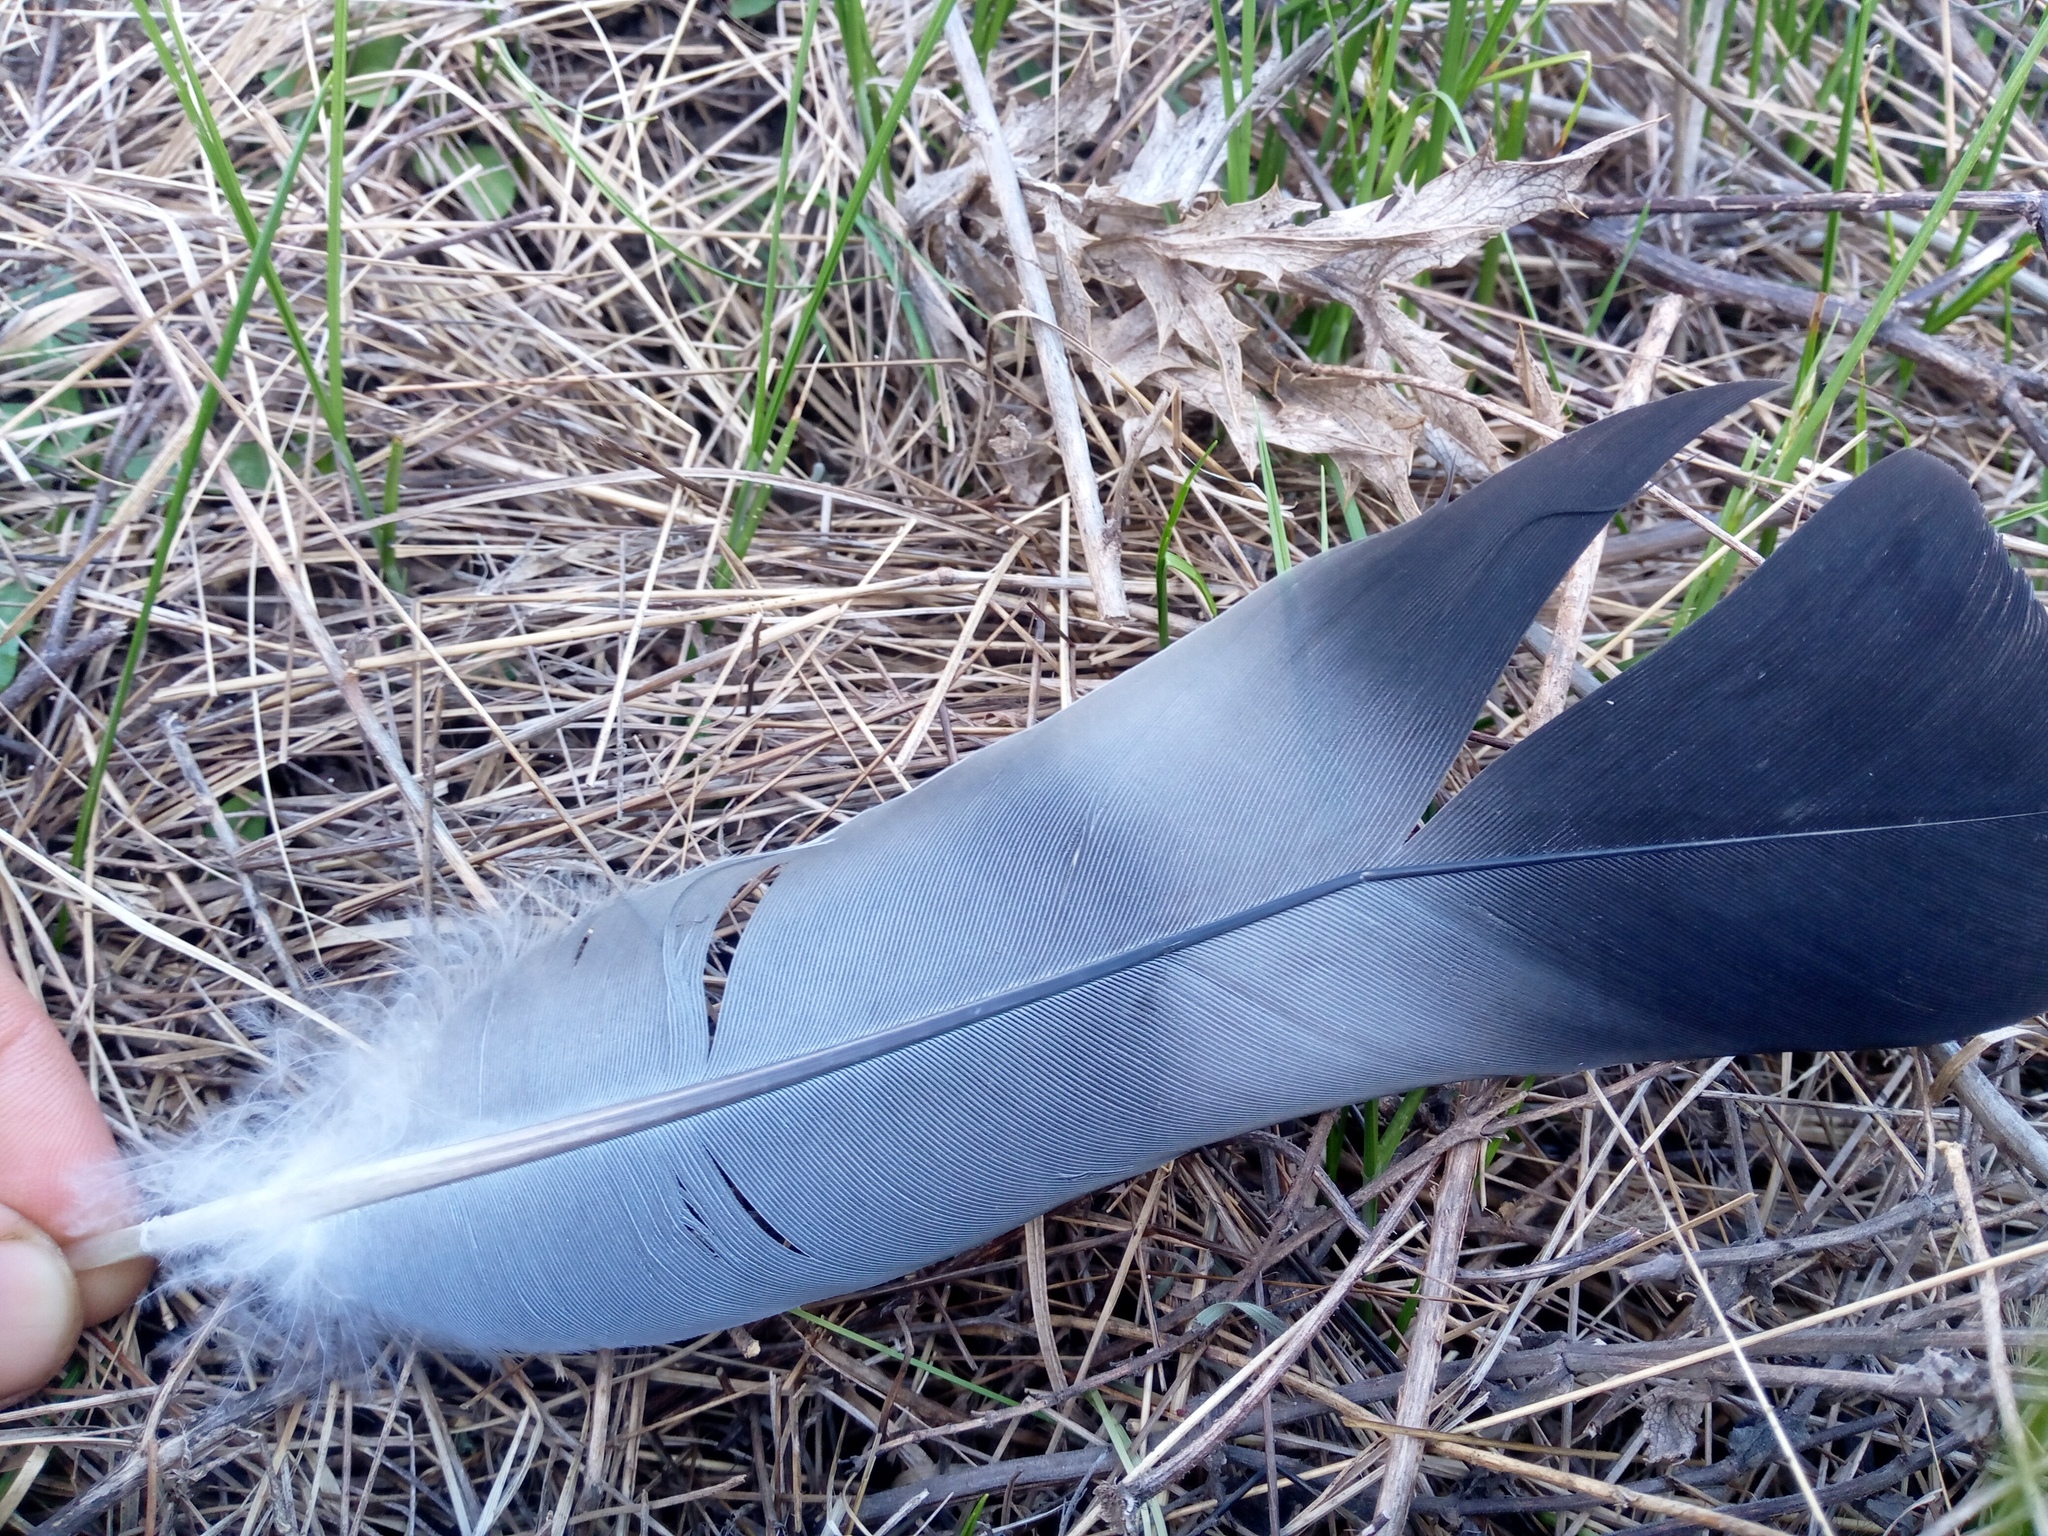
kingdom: Animalia
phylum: Chordata
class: Aves
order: Columbiformes
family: Columbidae
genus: Columba
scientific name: Columba palumbus
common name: Common wood pigeon
